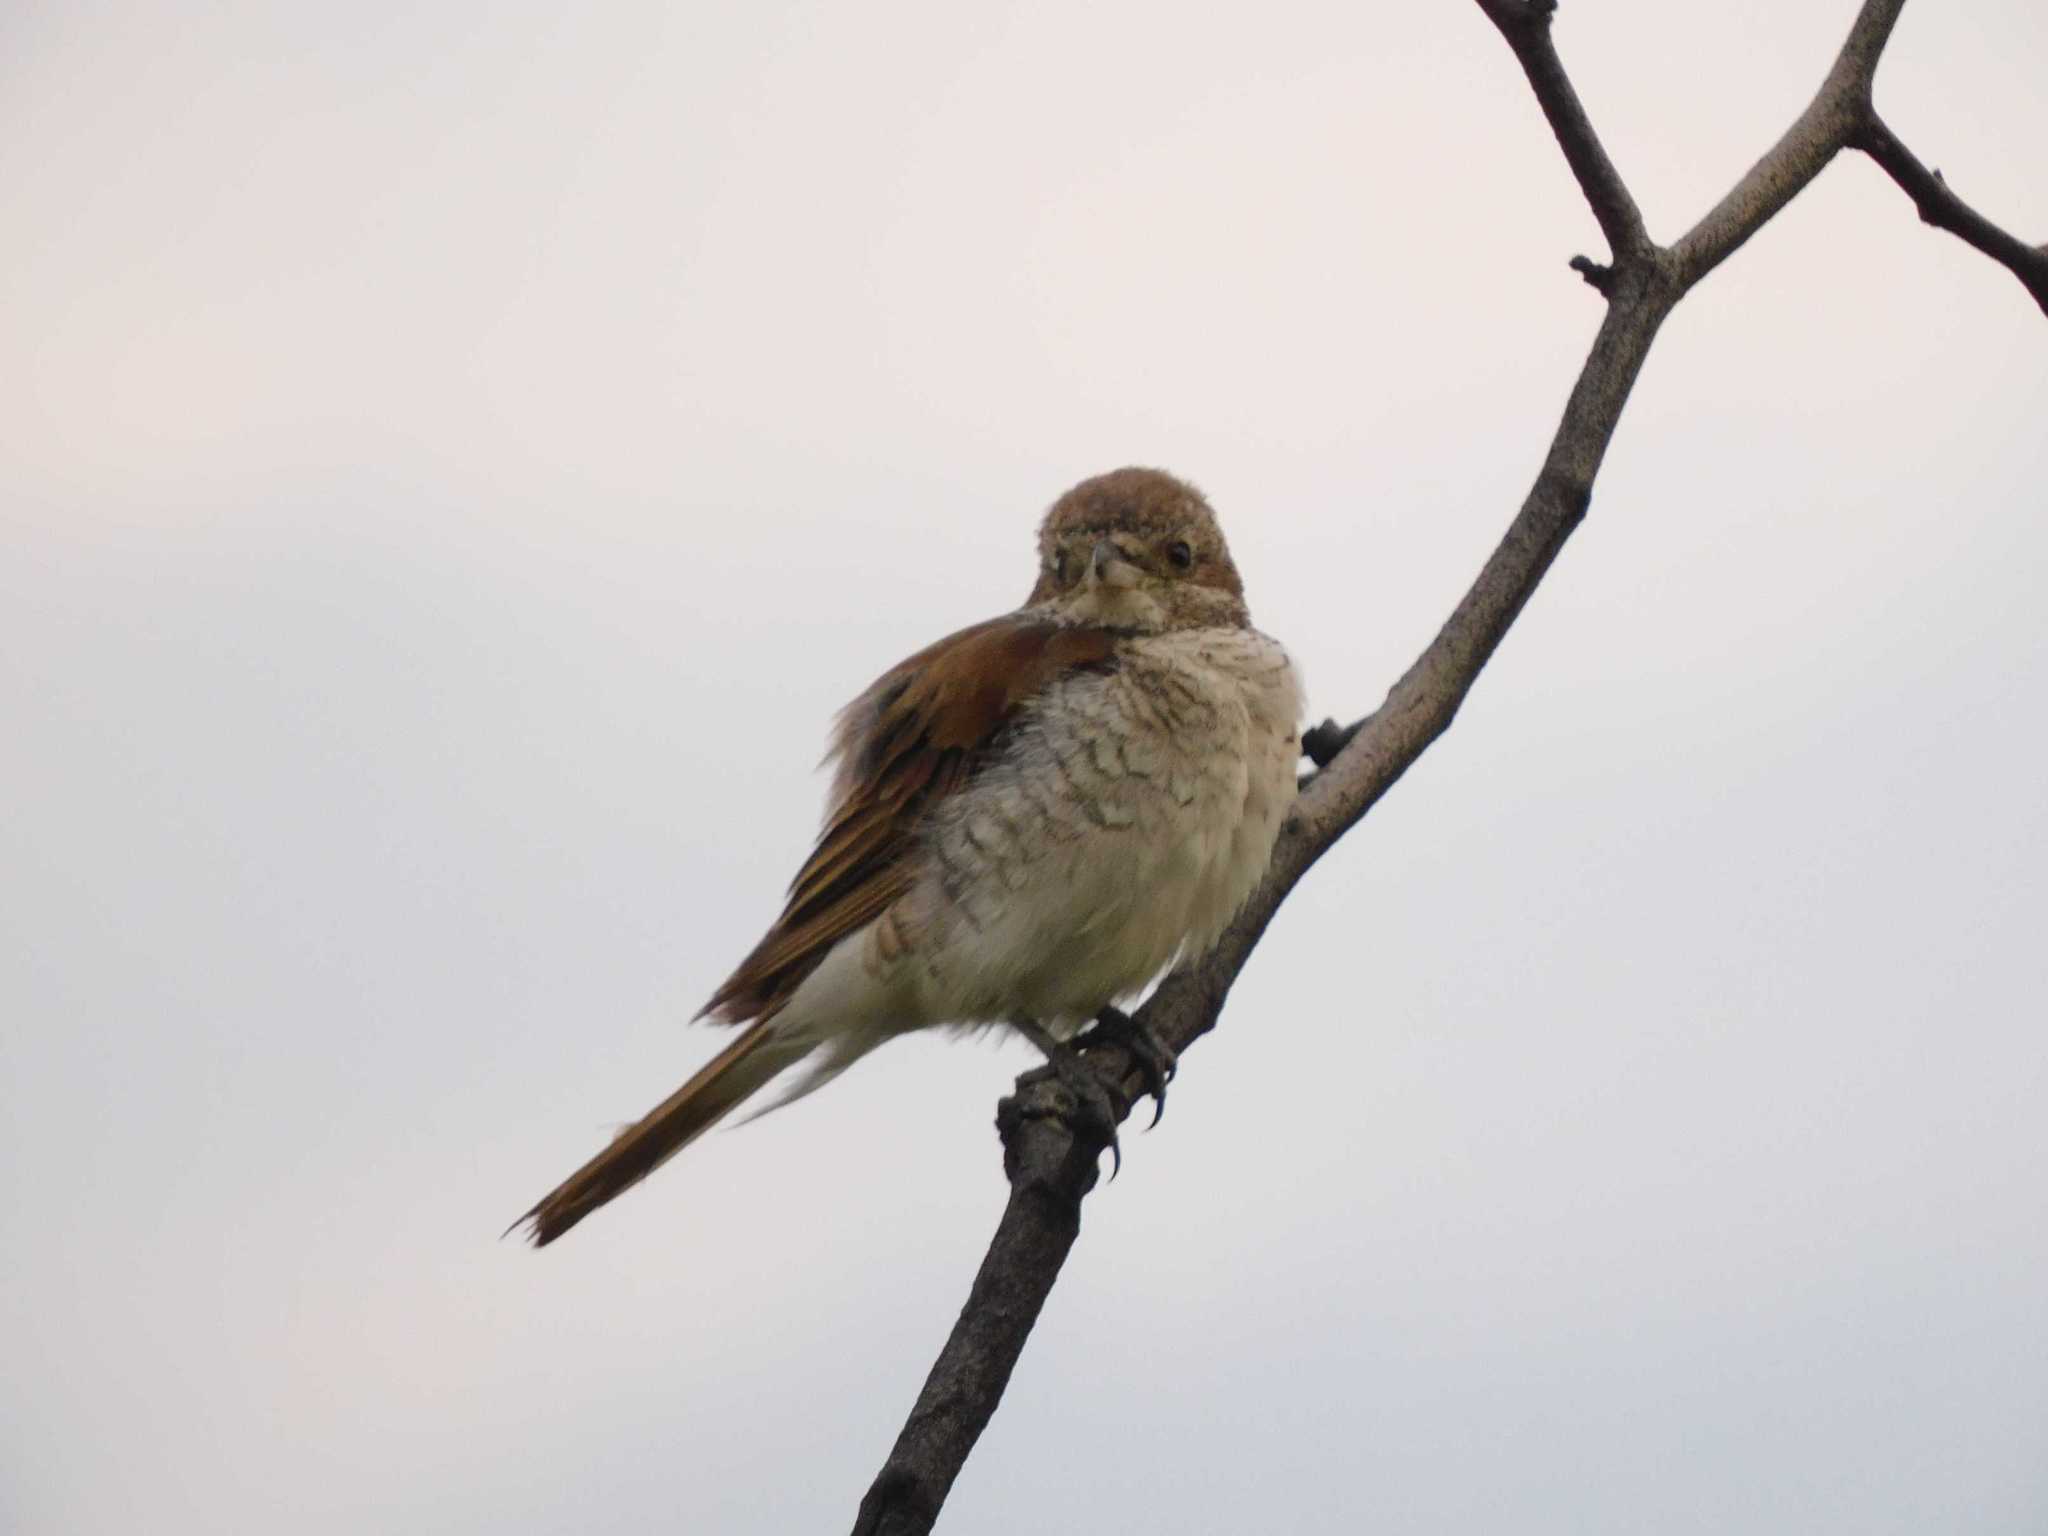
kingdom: Animalia
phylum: Chordata
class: Aves
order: Passeriformes
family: Laniidae
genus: Lanius
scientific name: Lanius collurio
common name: Red-backed shrike
